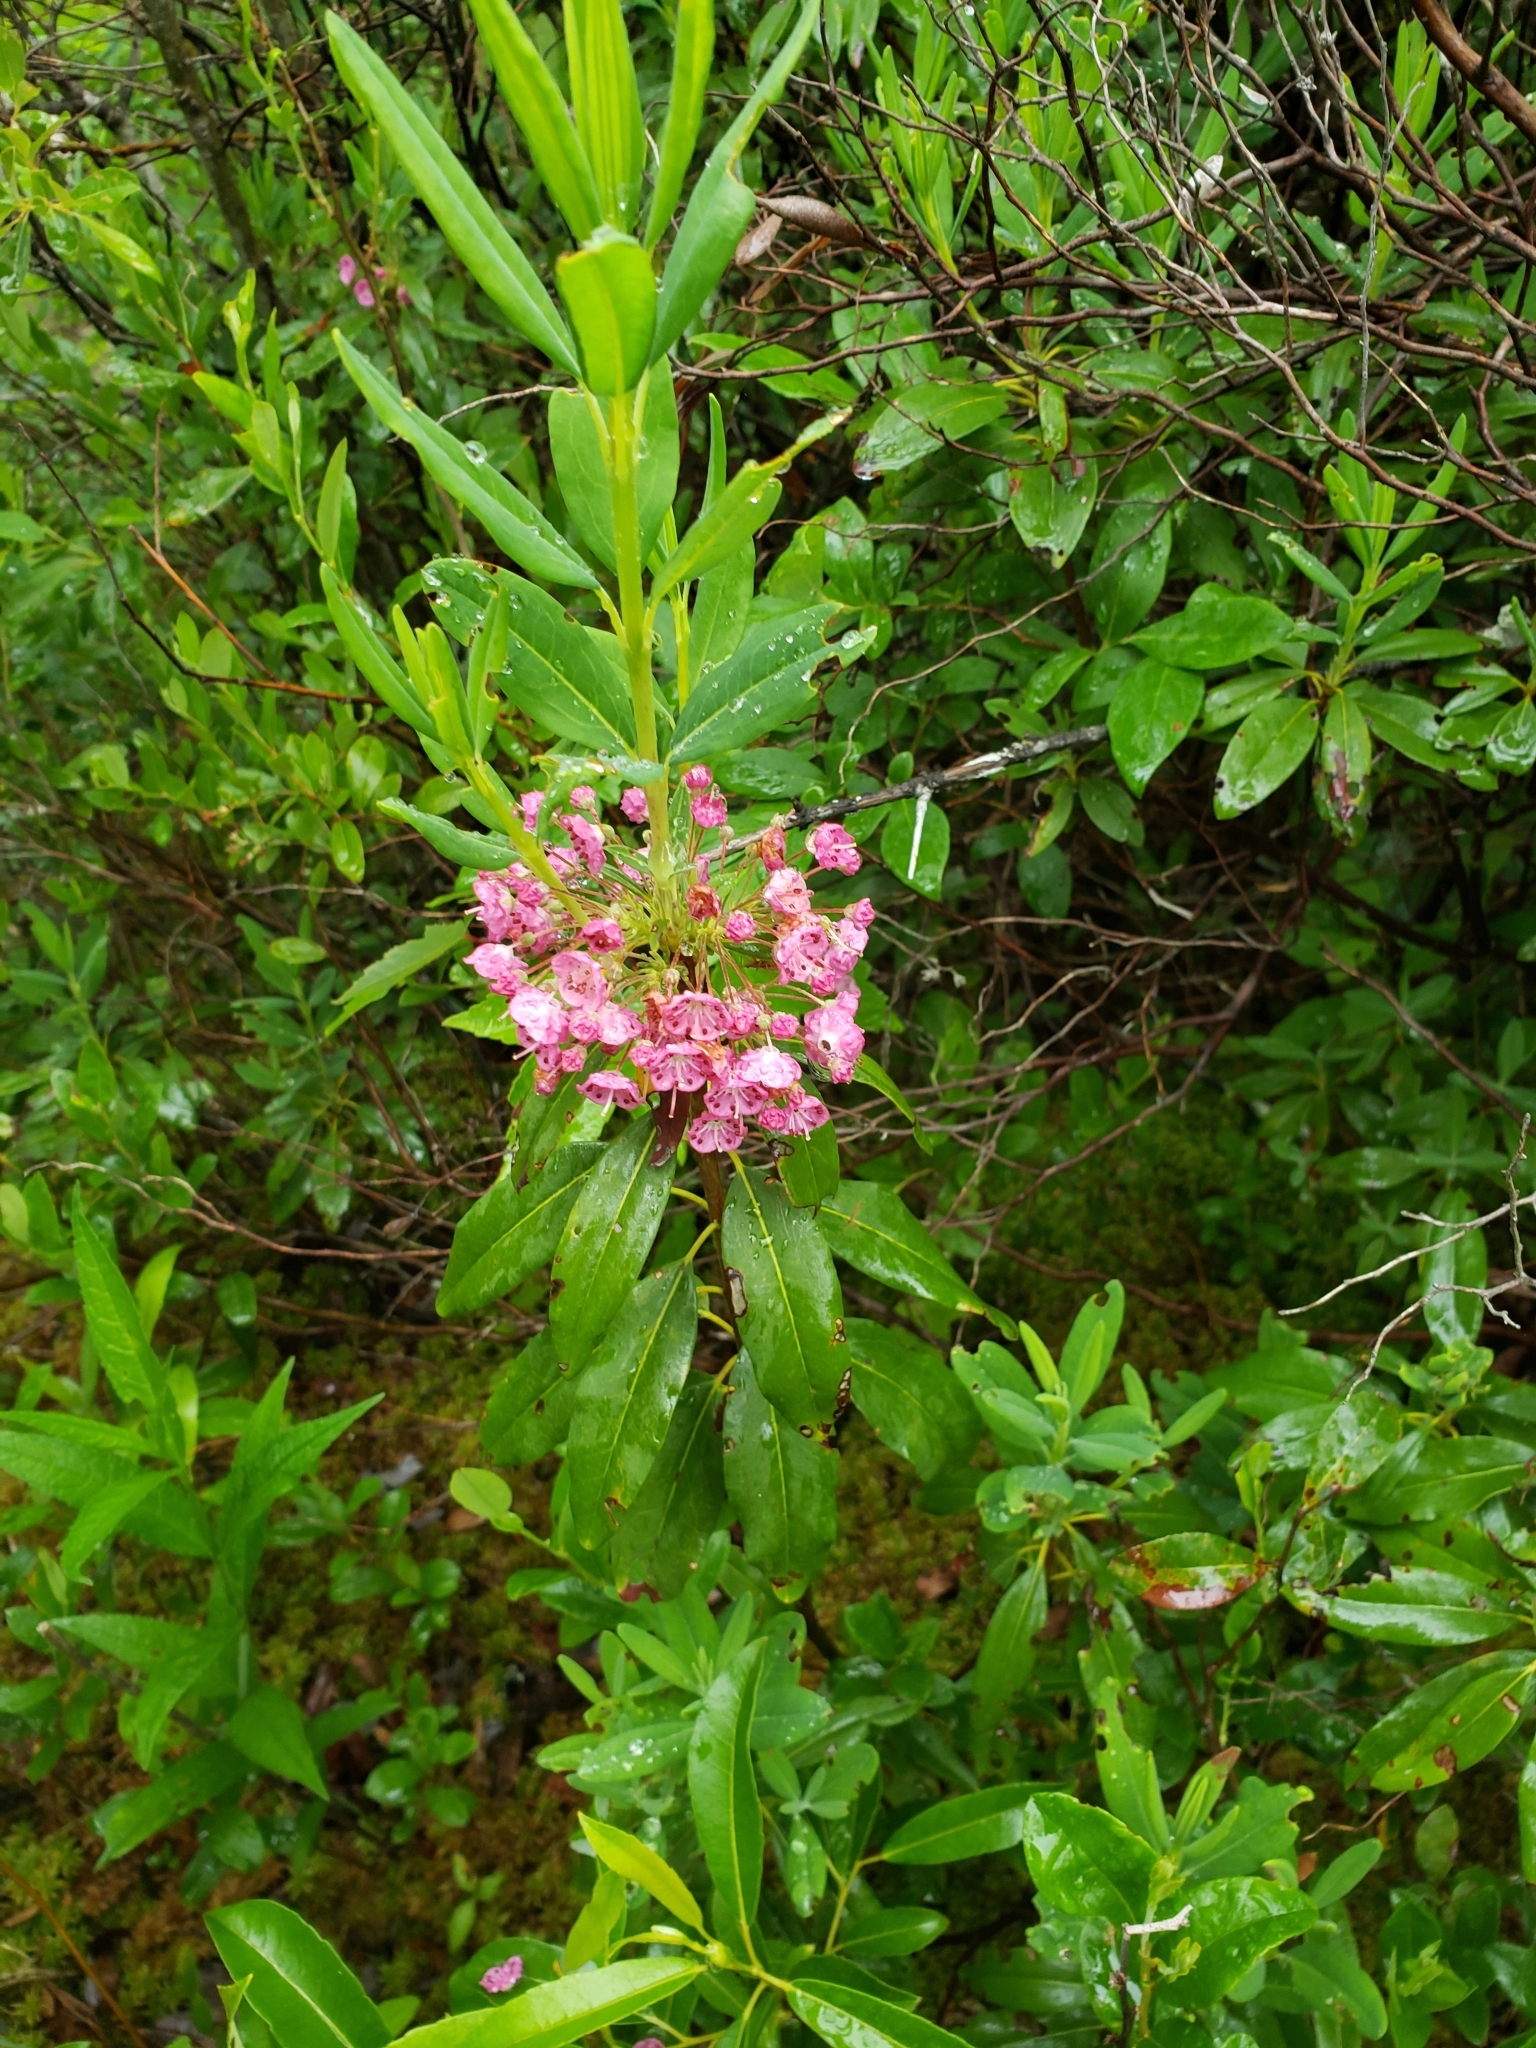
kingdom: Plantae
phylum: Tracheophyta
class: Magnoliopsida
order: Ericales
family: Ericaceae
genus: Kalmia
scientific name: Kalmia angustifolia
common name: Sheep-laurel
